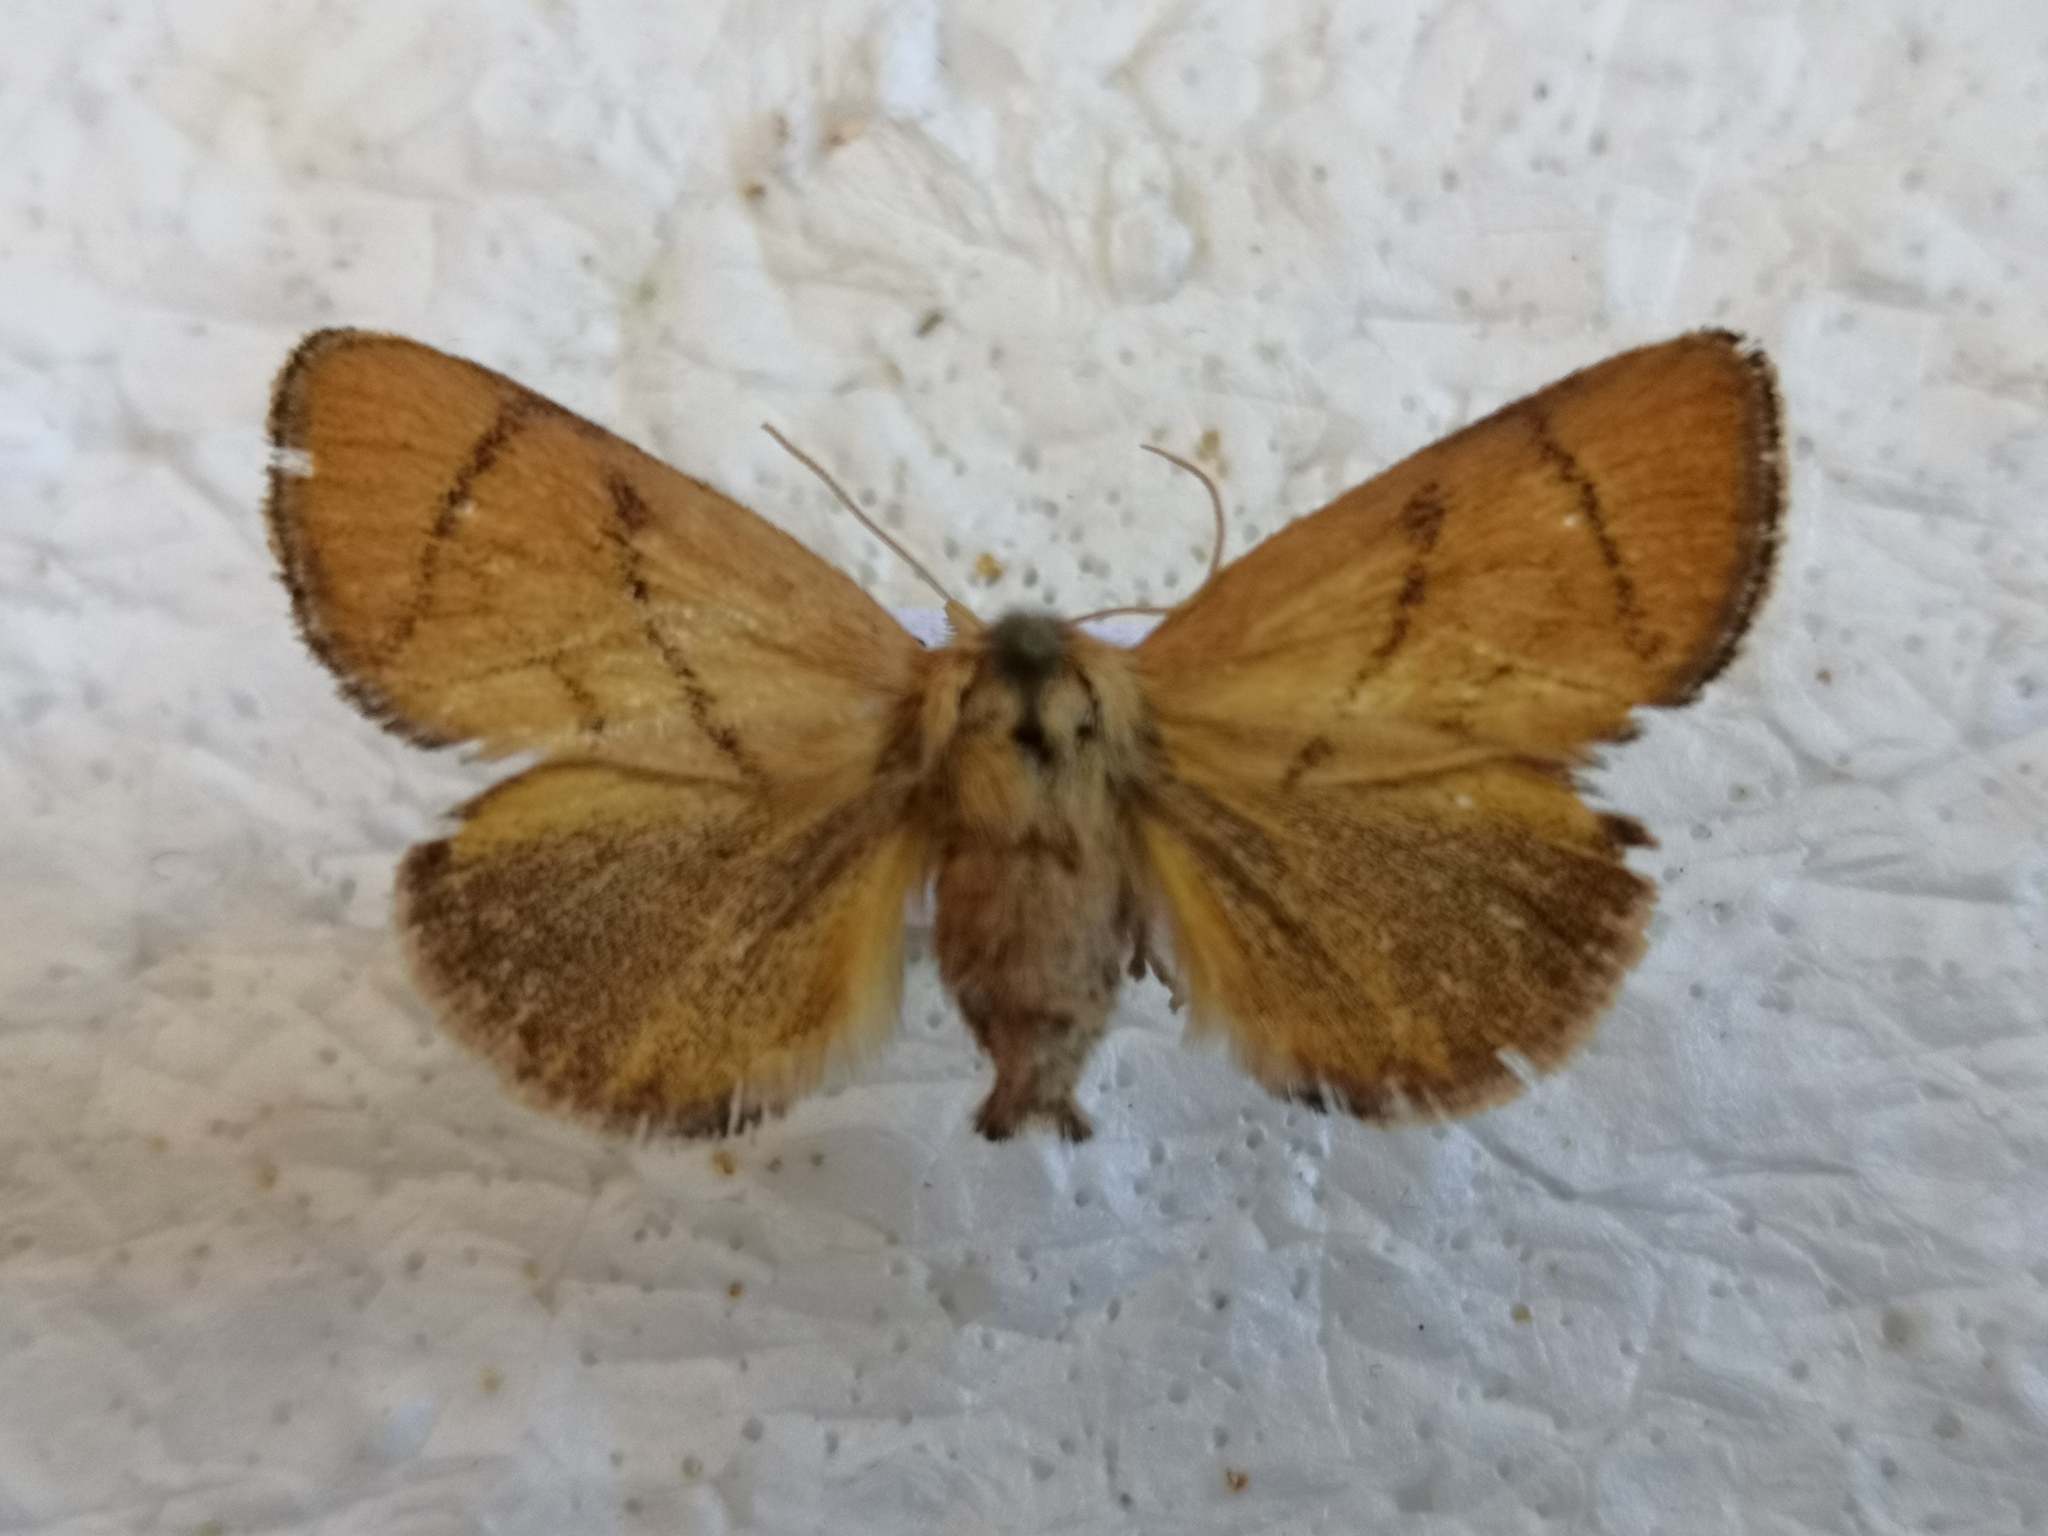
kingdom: Animalia
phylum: Arthropoda
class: Insecta
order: Lepidoptera
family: Limacodidae
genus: Apoda
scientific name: Apoda limacodes
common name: Festoon
